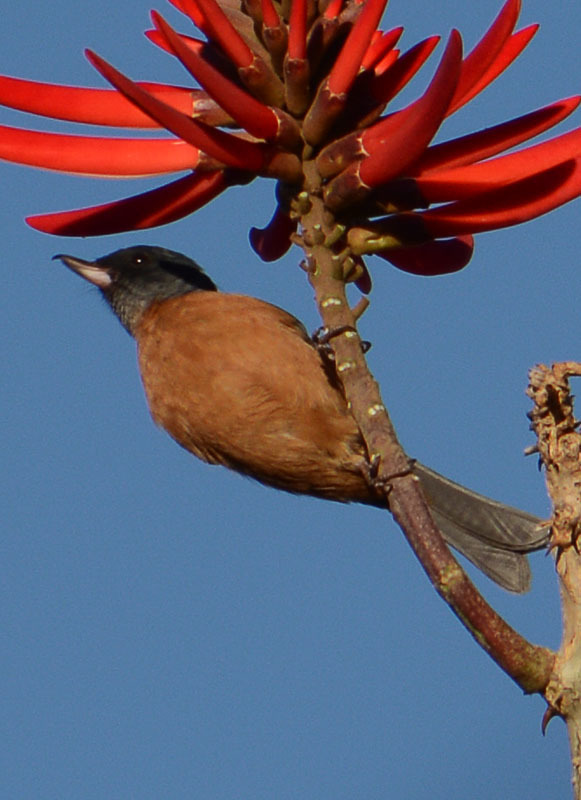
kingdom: Animalia
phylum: Chordata
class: Aves
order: Passeriformes
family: Thraupidae
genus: Diglossa
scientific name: Diglossa baritula
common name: Cinnamon-bellied flowerpiercer
